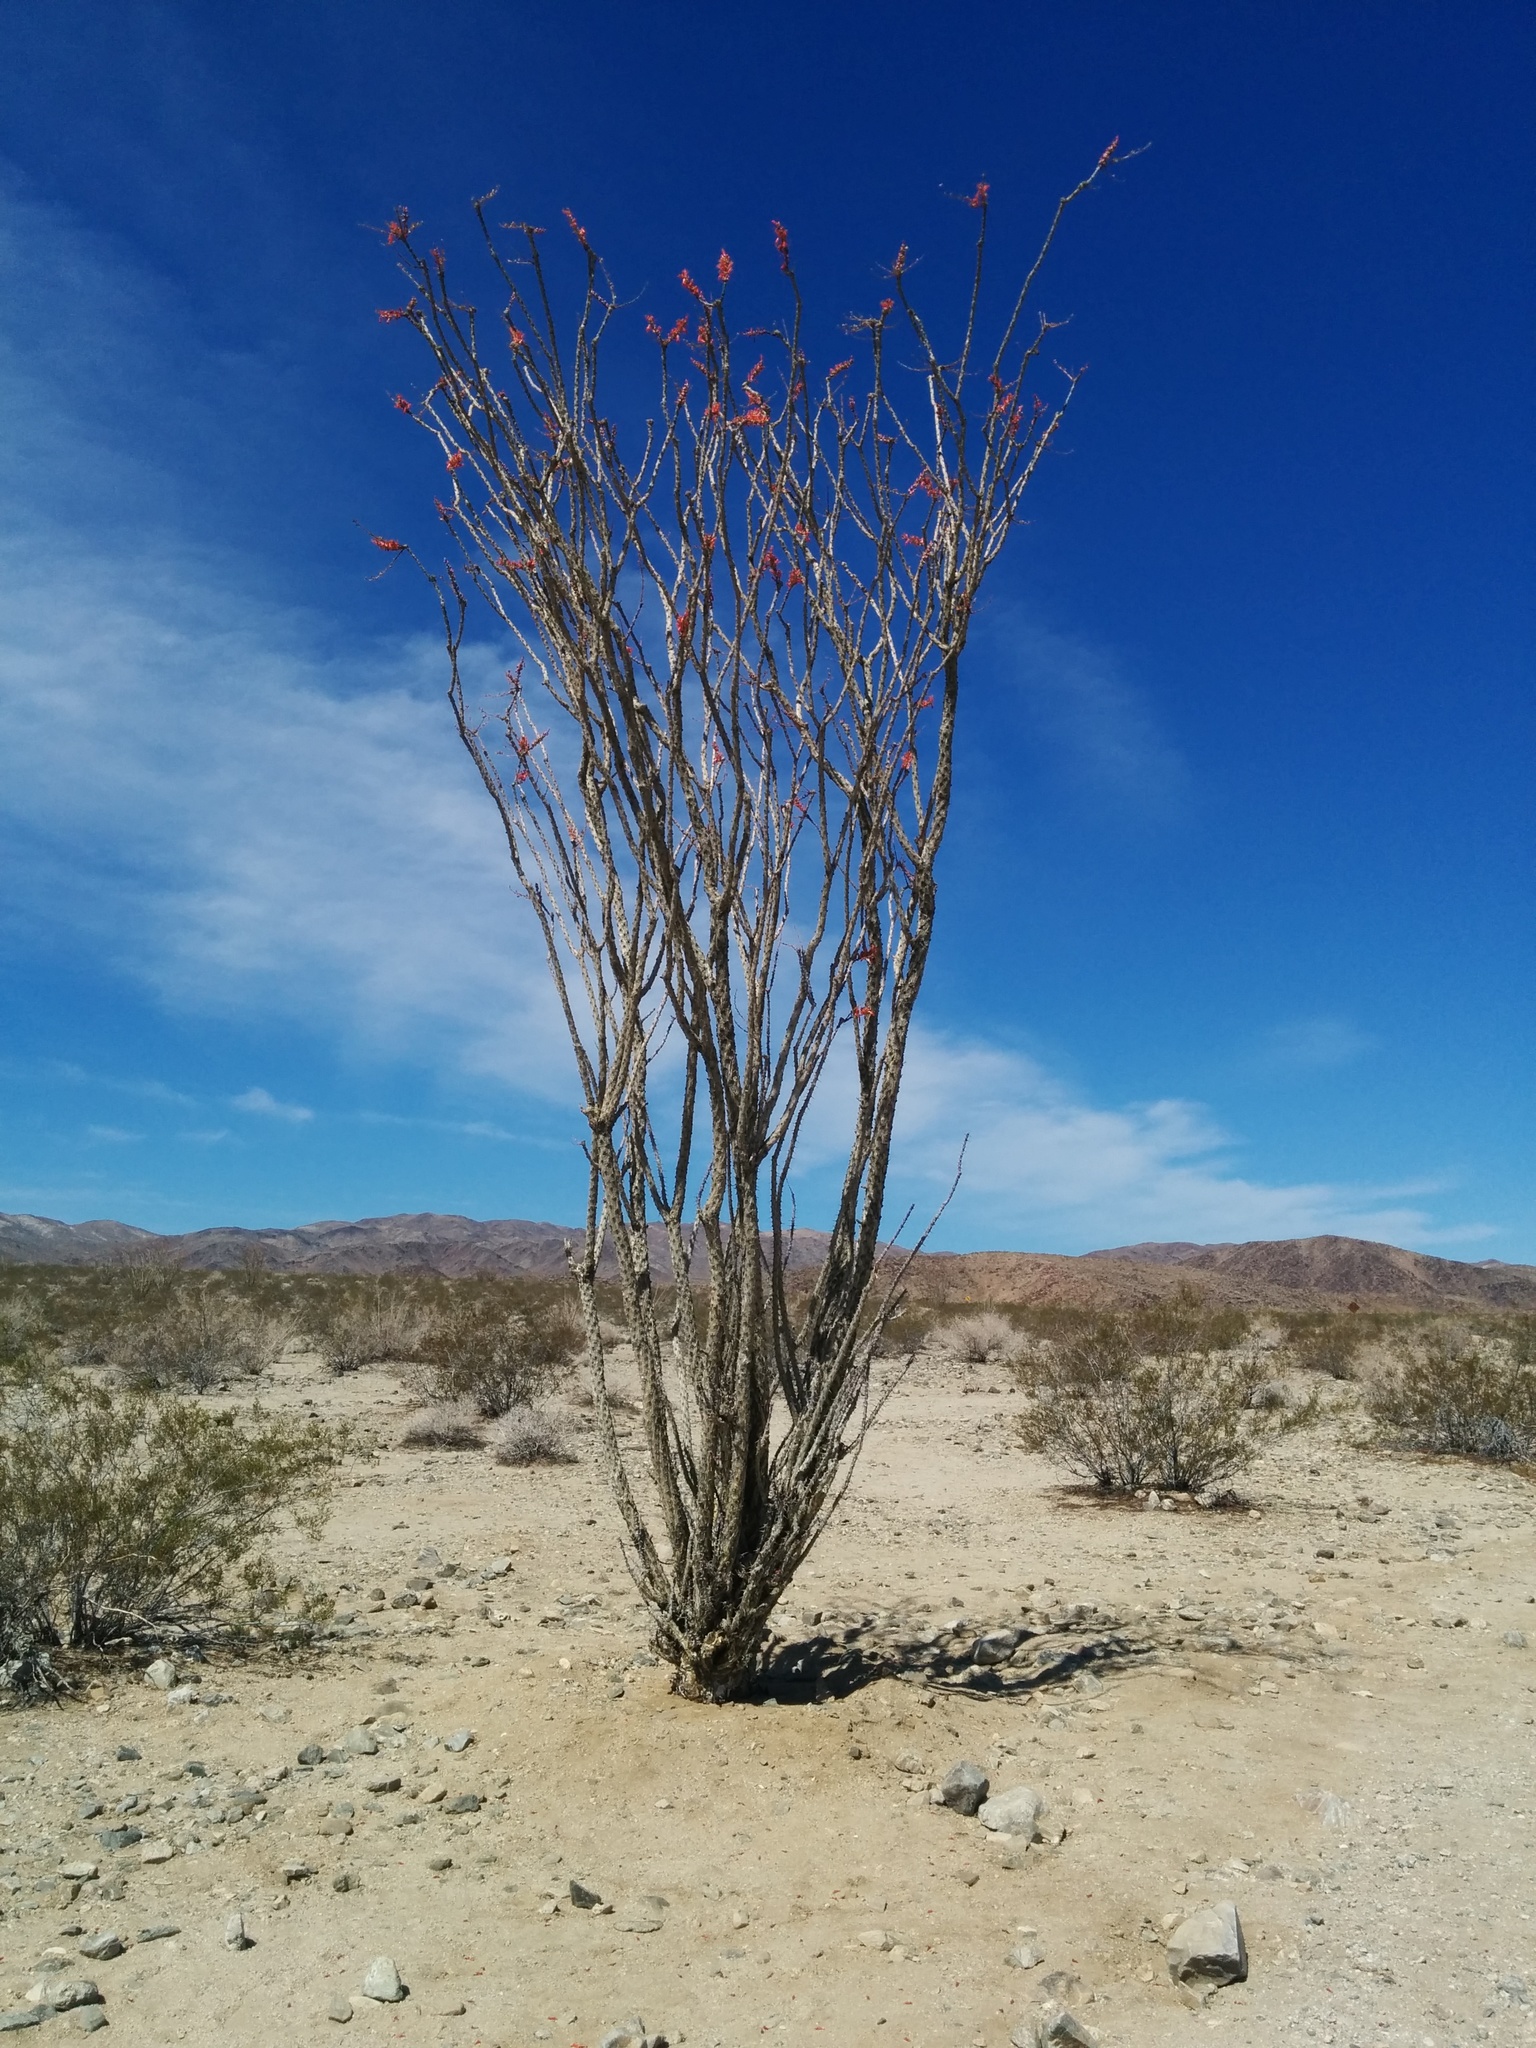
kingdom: Plantae
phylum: Tracheophyta
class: Magnoliopsida
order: Ericales
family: Fouquieriaceae
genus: Fouquieria
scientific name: Fouquieria splendens
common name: Vine-cactus
